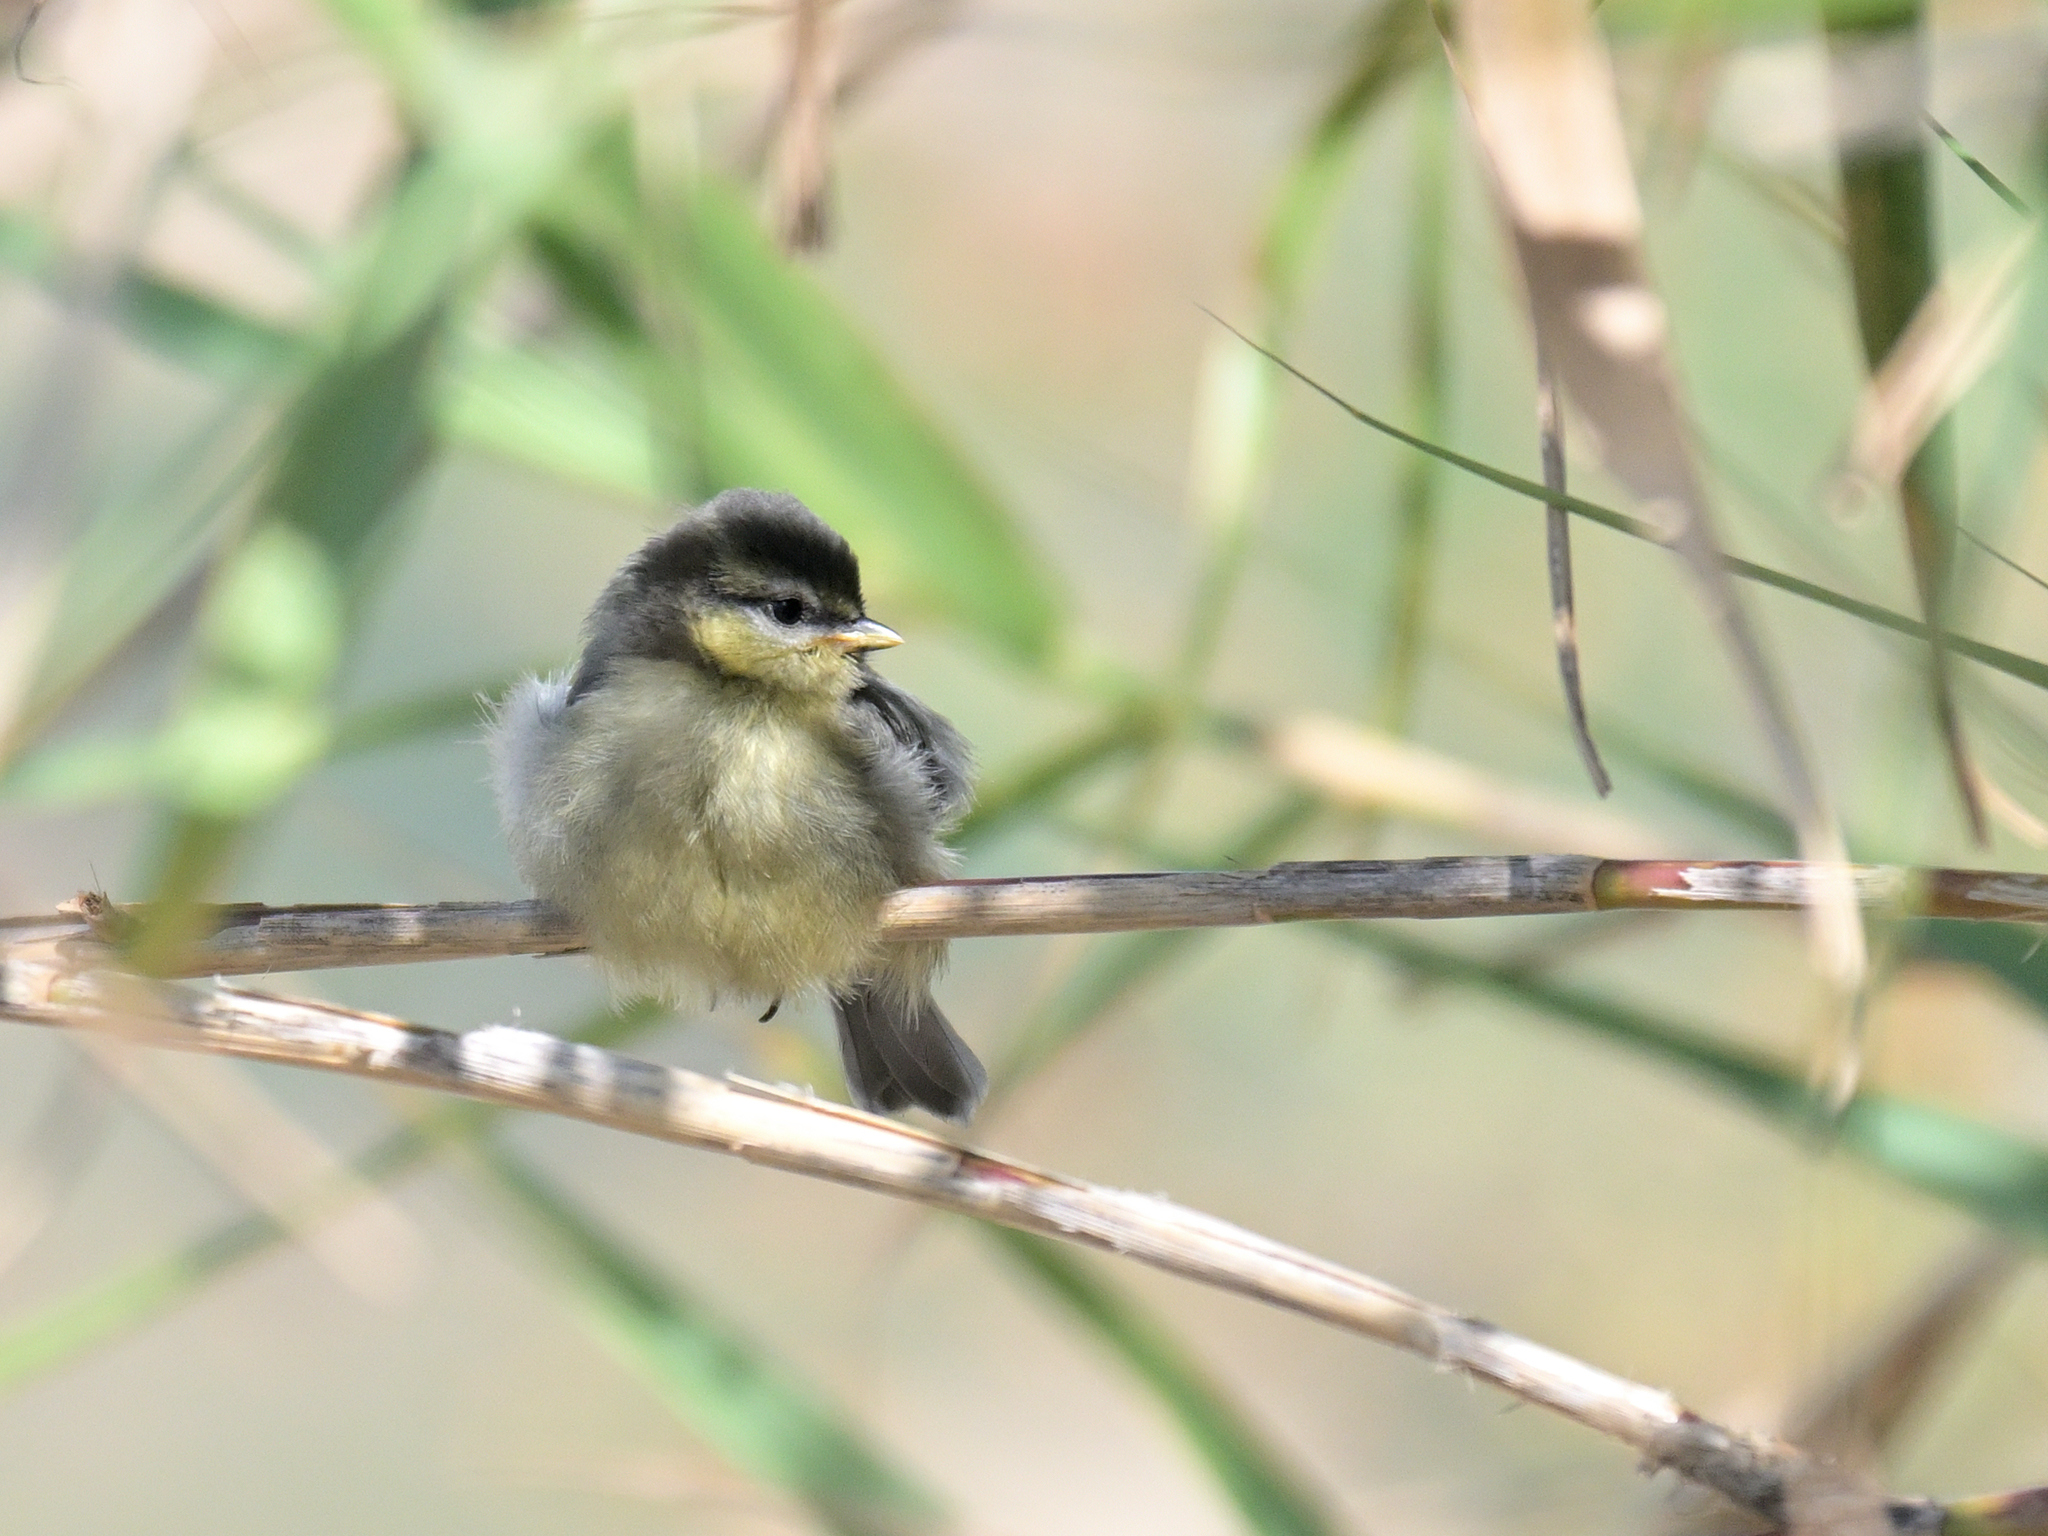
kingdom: Animalia
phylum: Chordata
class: Aves
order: Passeriformes
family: Paridae
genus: Cyanistes
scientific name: Cyanistes caeruleus
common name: Eurasian blue tit
